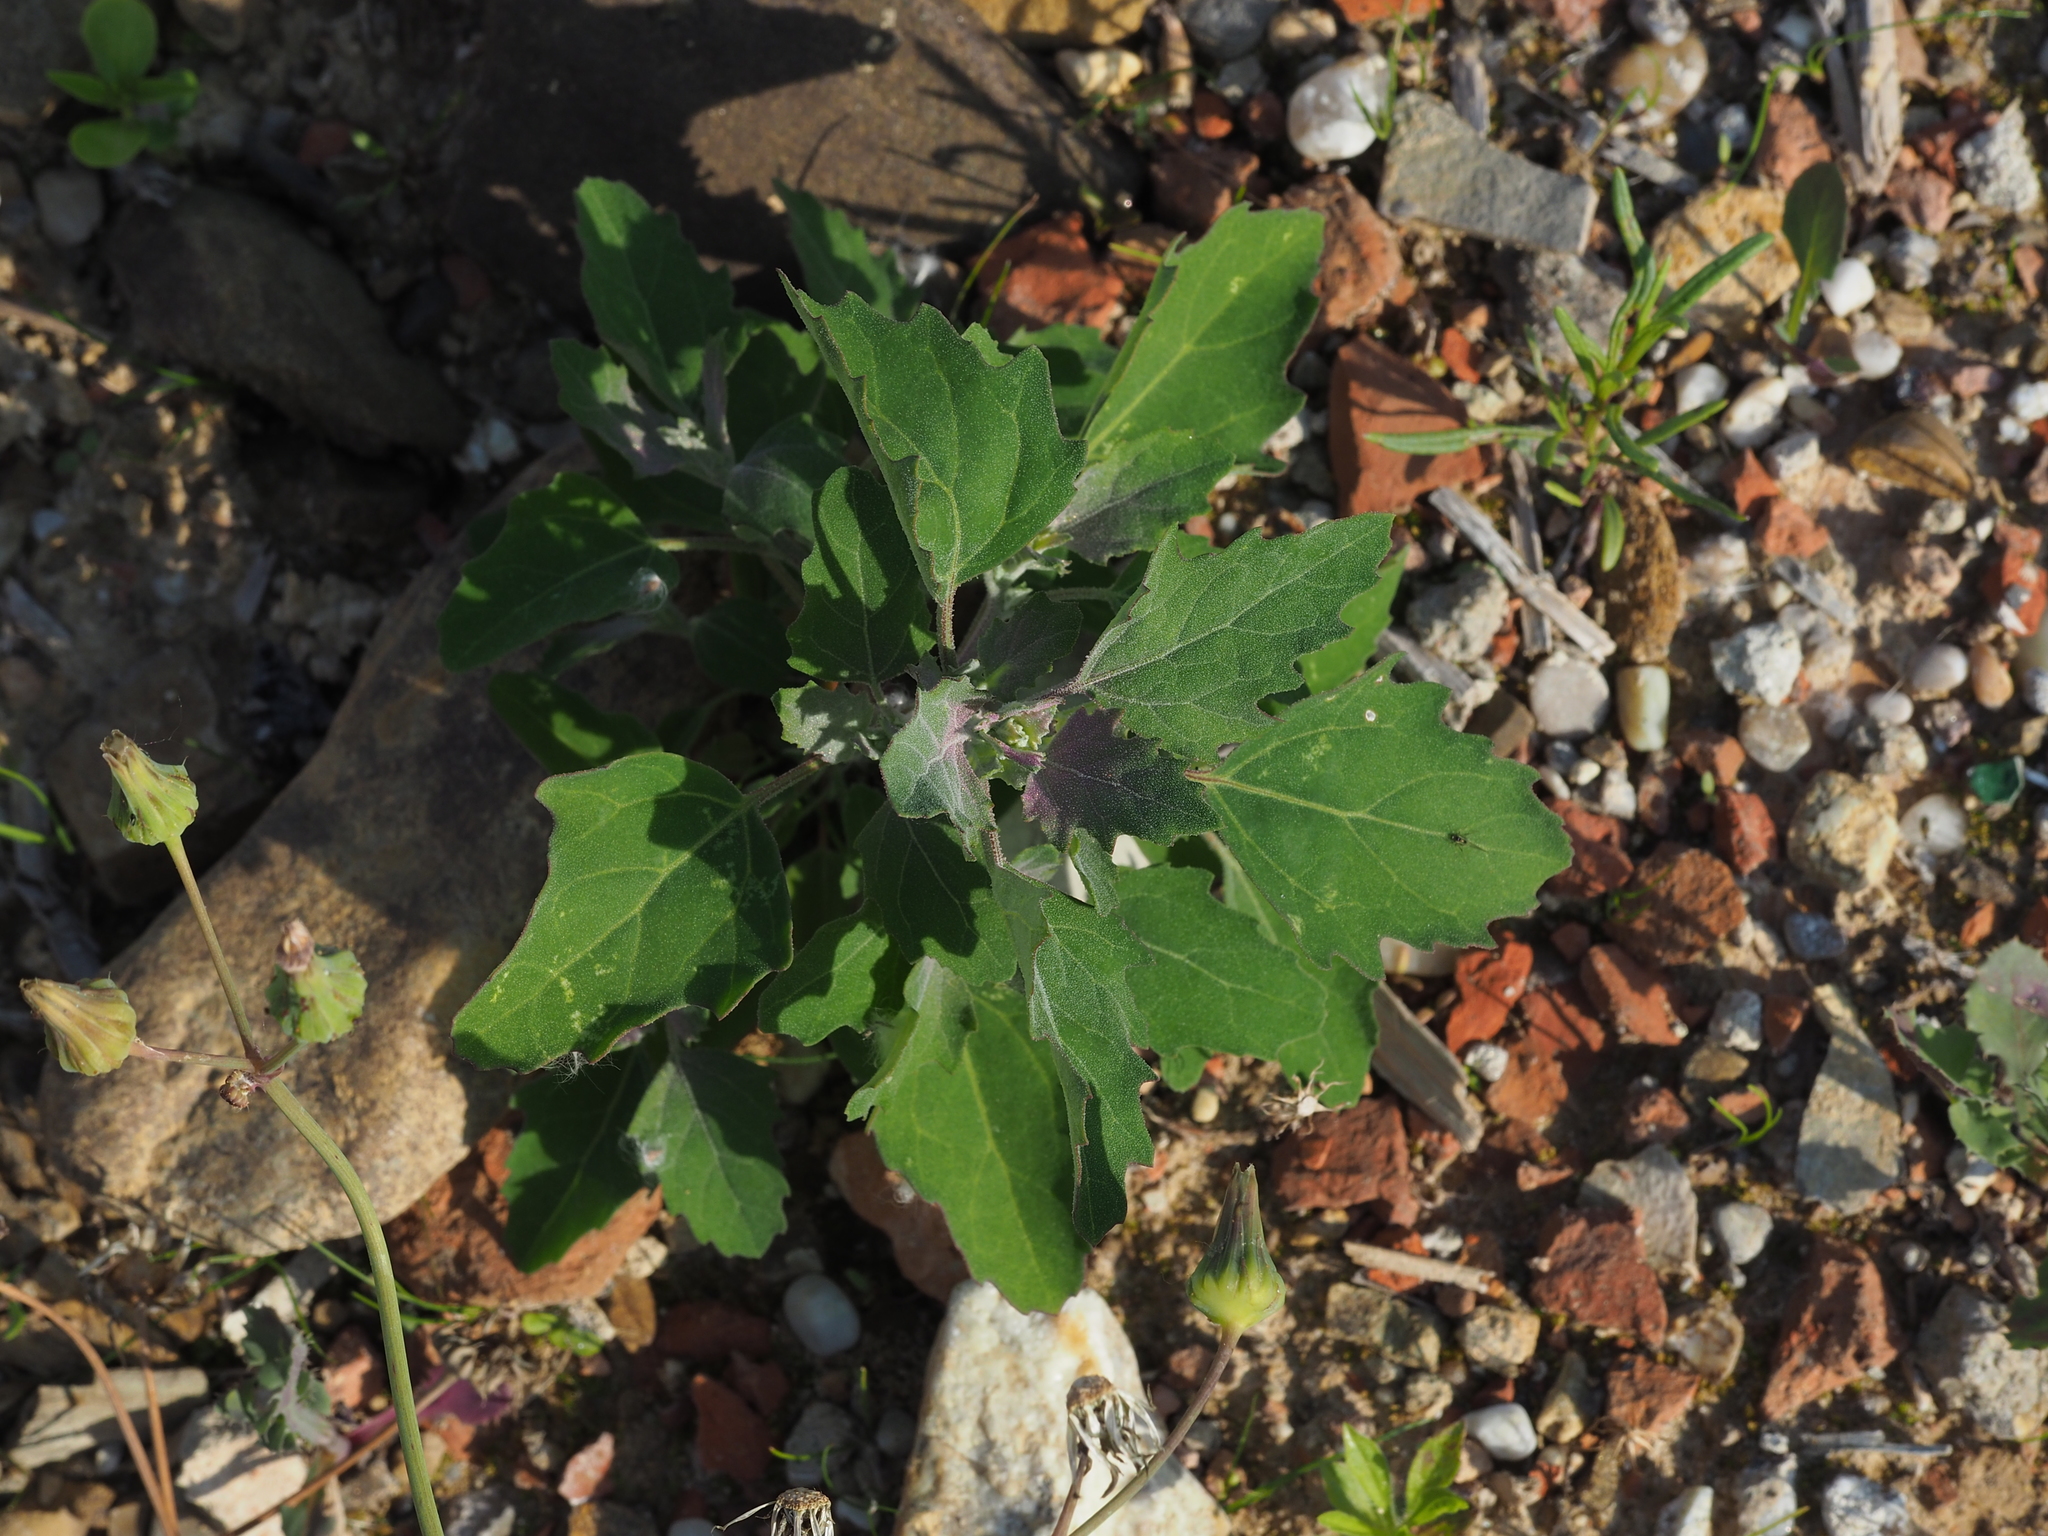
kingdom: Plantae
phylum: Tracheophyta
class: Magnoliopsida
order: Caryophyllales
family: Amaranthaceae
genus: Chenopodium
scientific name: Chenopodium giganteum
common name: Magentaspreen
